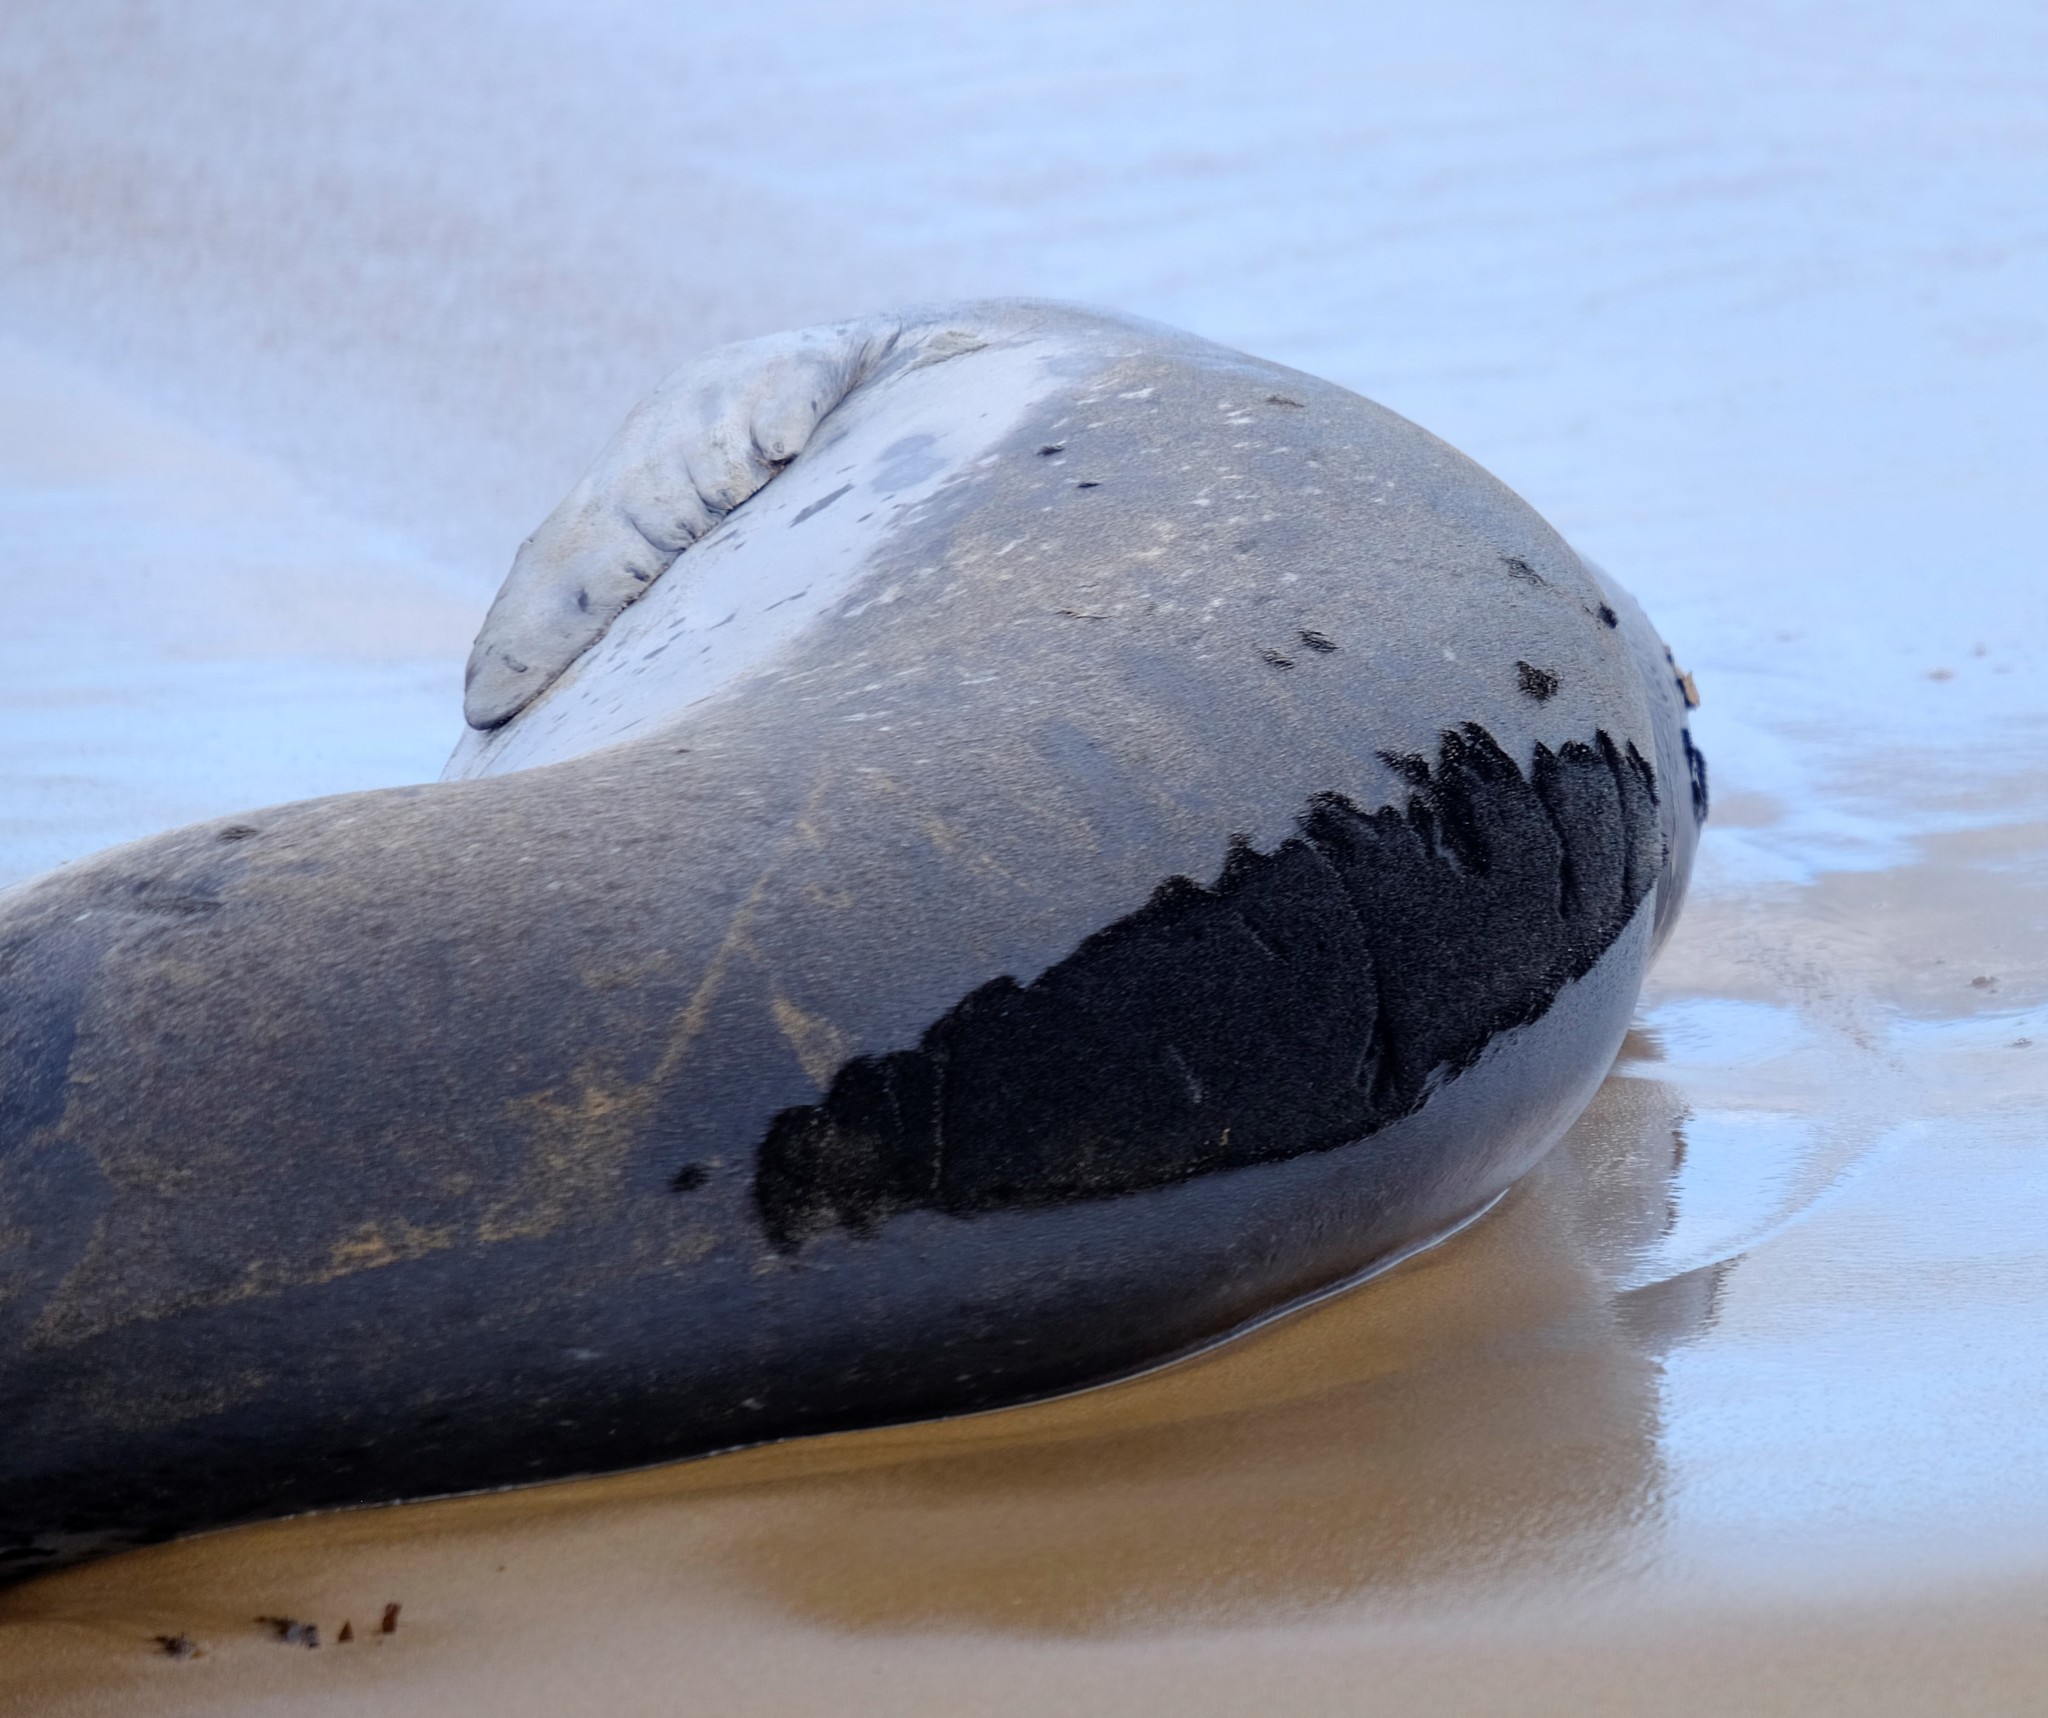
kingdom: Animalia
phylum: Chordata
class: Mammalia
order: Carnivora
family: Phocidae
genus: Hydrurga
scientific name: Hydrurga leptonyx
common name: Leopard seal
